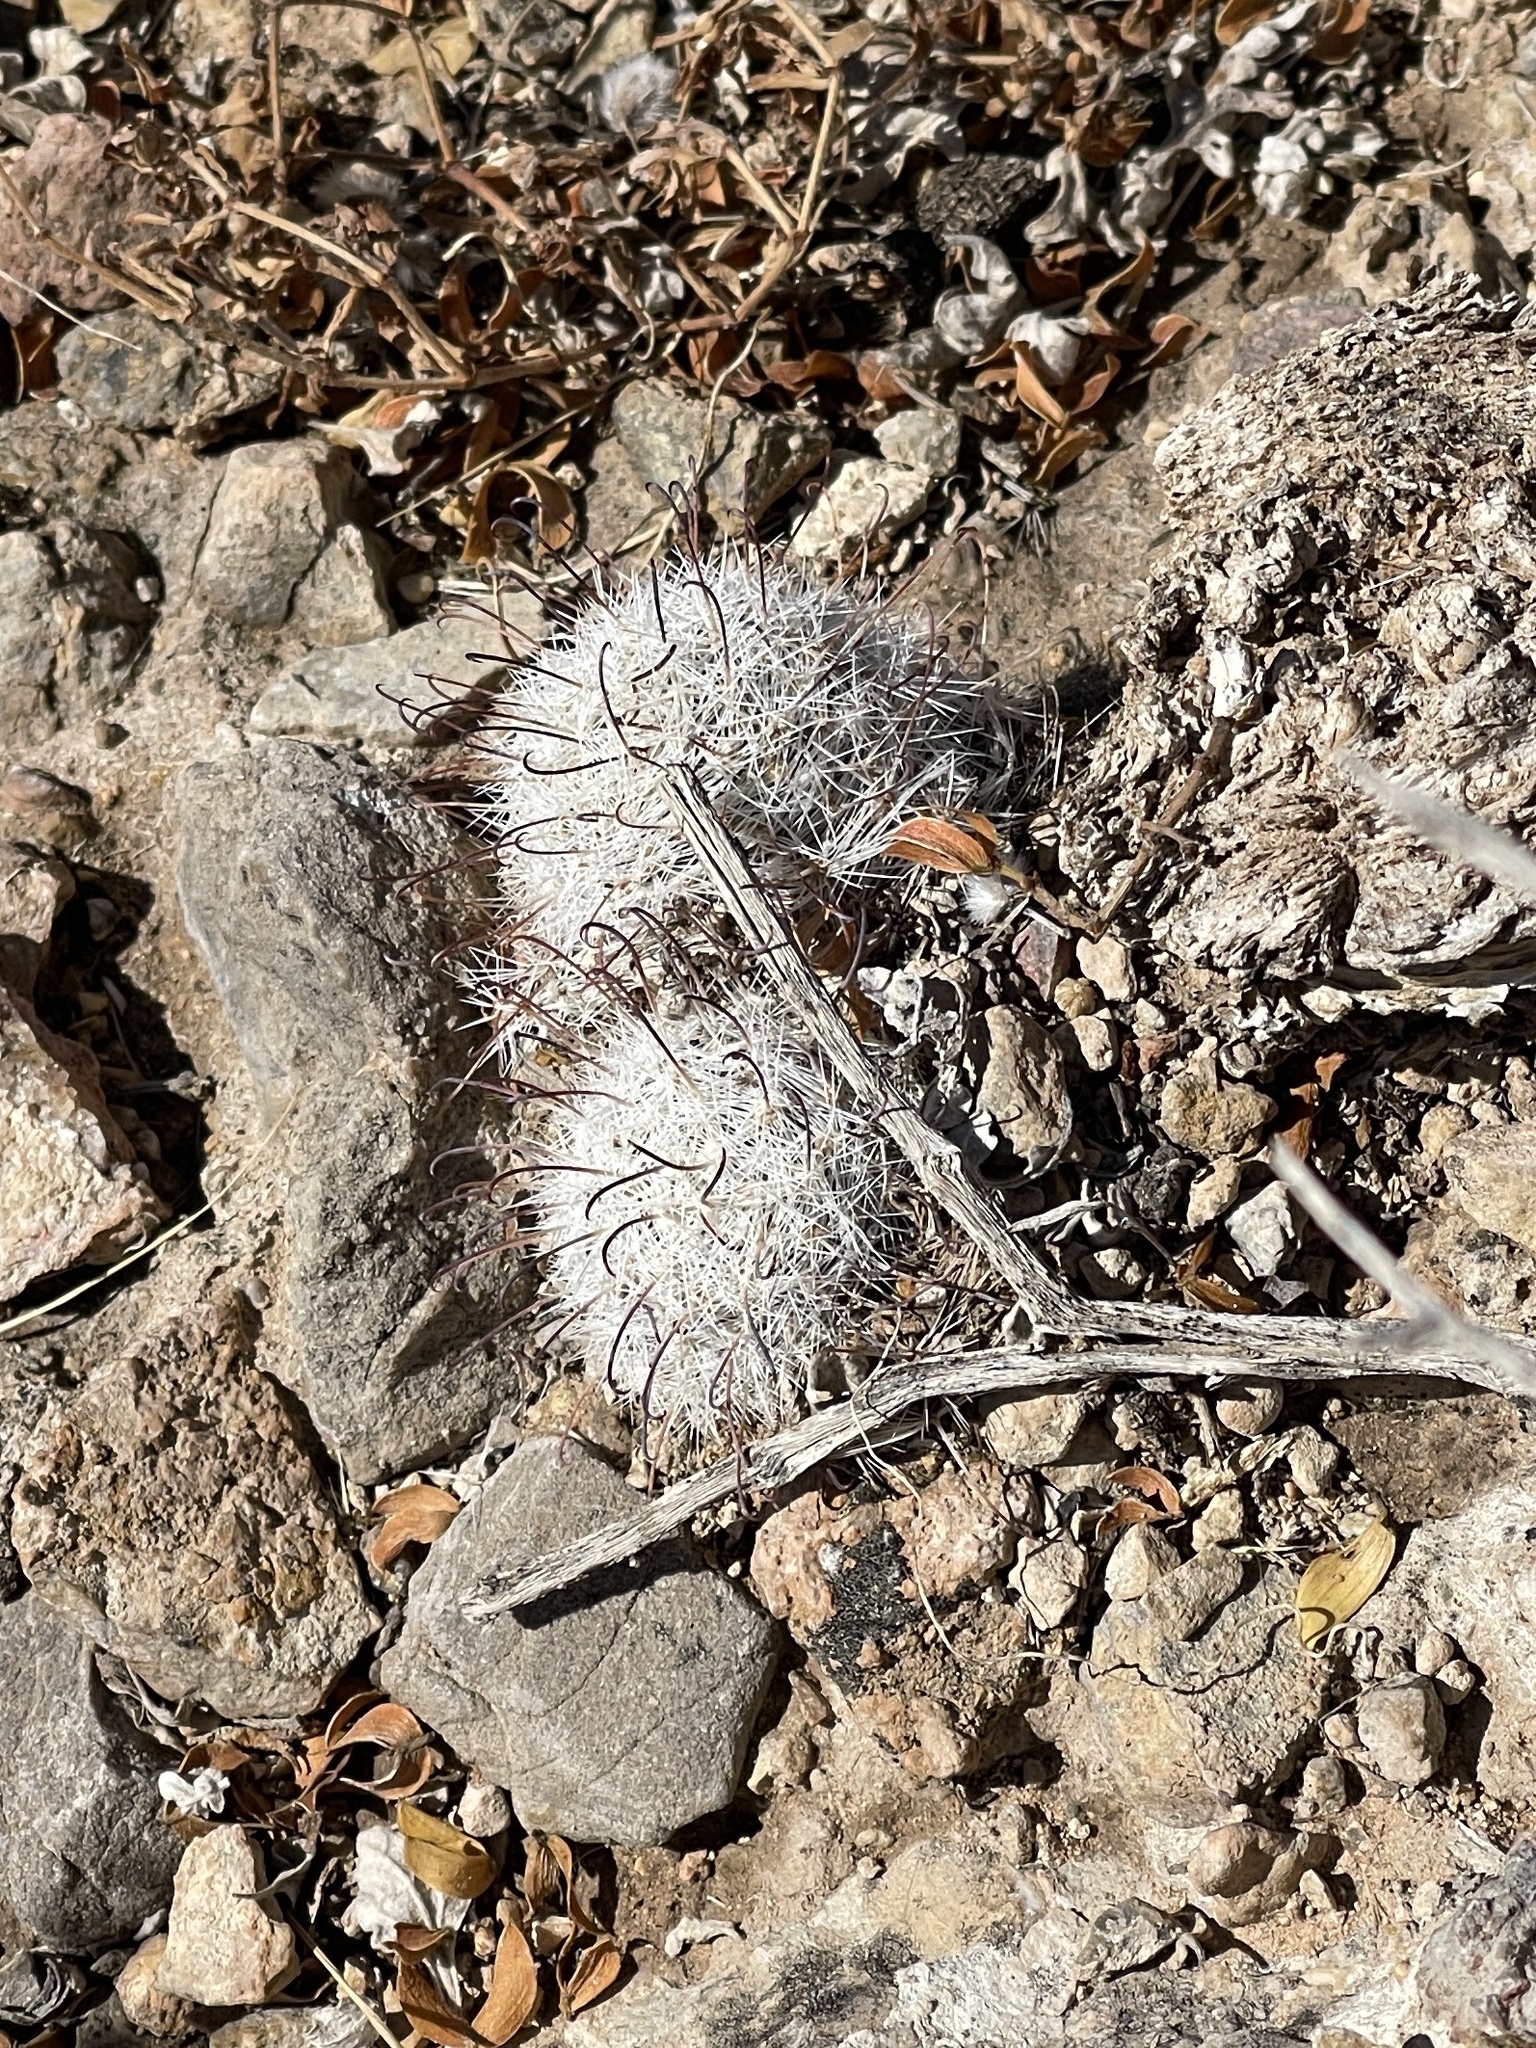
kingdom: Plantae
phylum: Tracheophyta
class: Magnoliopsida
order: Caryophyllales
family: Cactaceae
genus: Cochemiea
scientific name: Cochemiea grahamii
